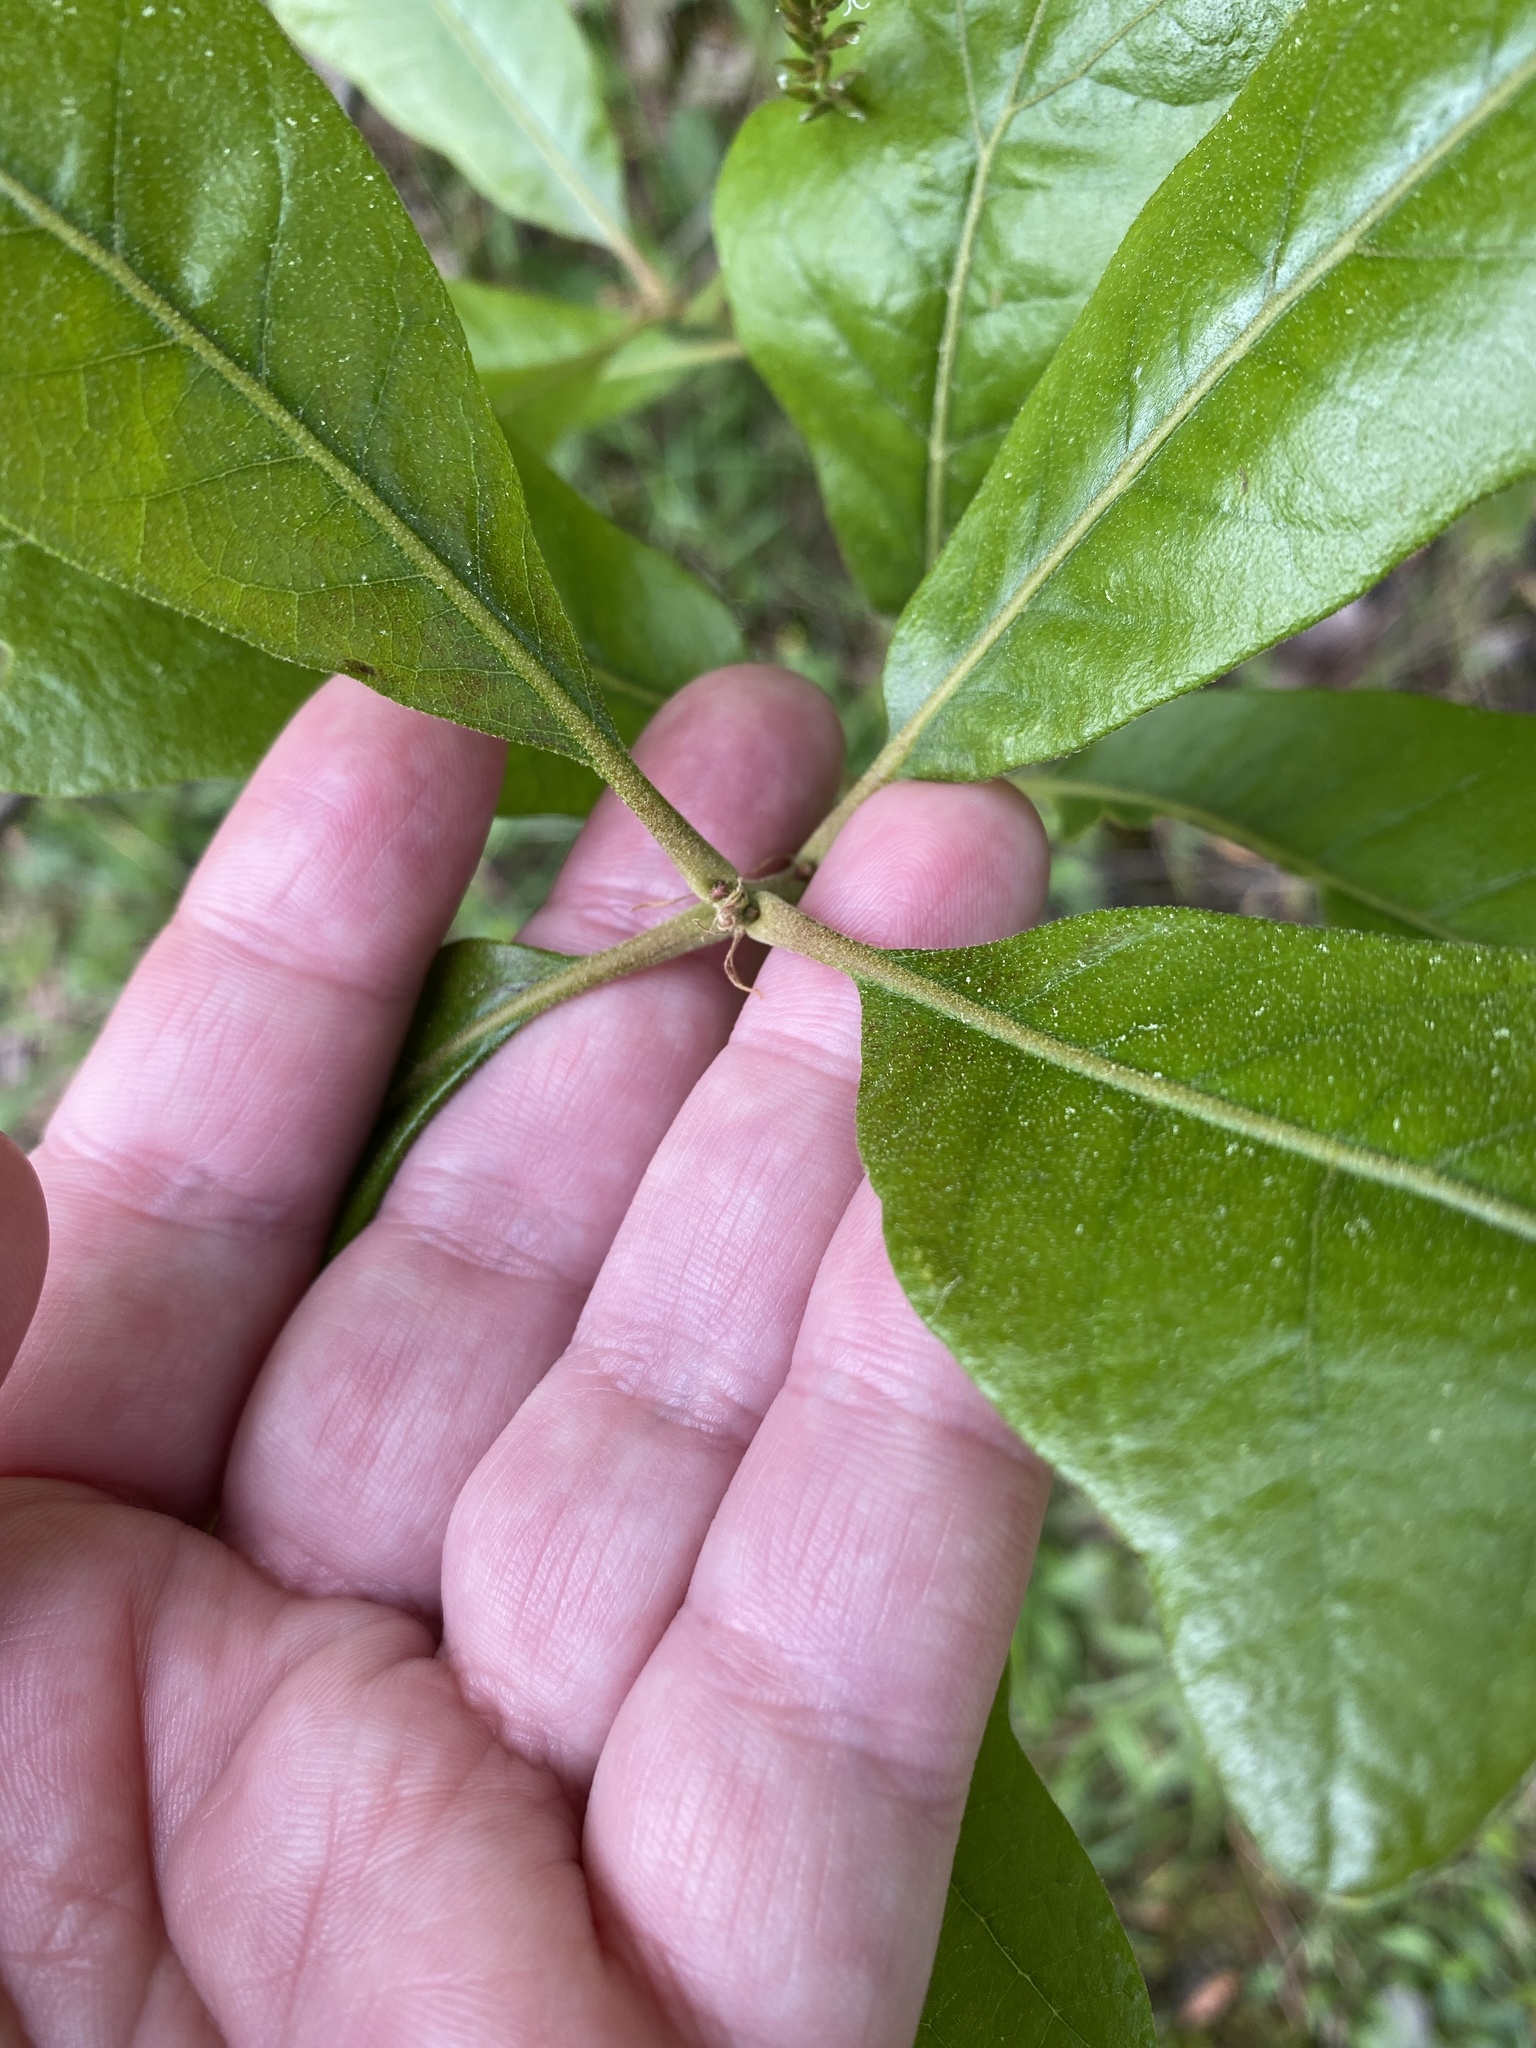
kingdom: Plantae
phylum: Tracheophyta
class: Magnoliopsida
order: Fagales
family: Fagaceae
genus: Quercus
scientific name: Quercus stellata
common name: Post oak
